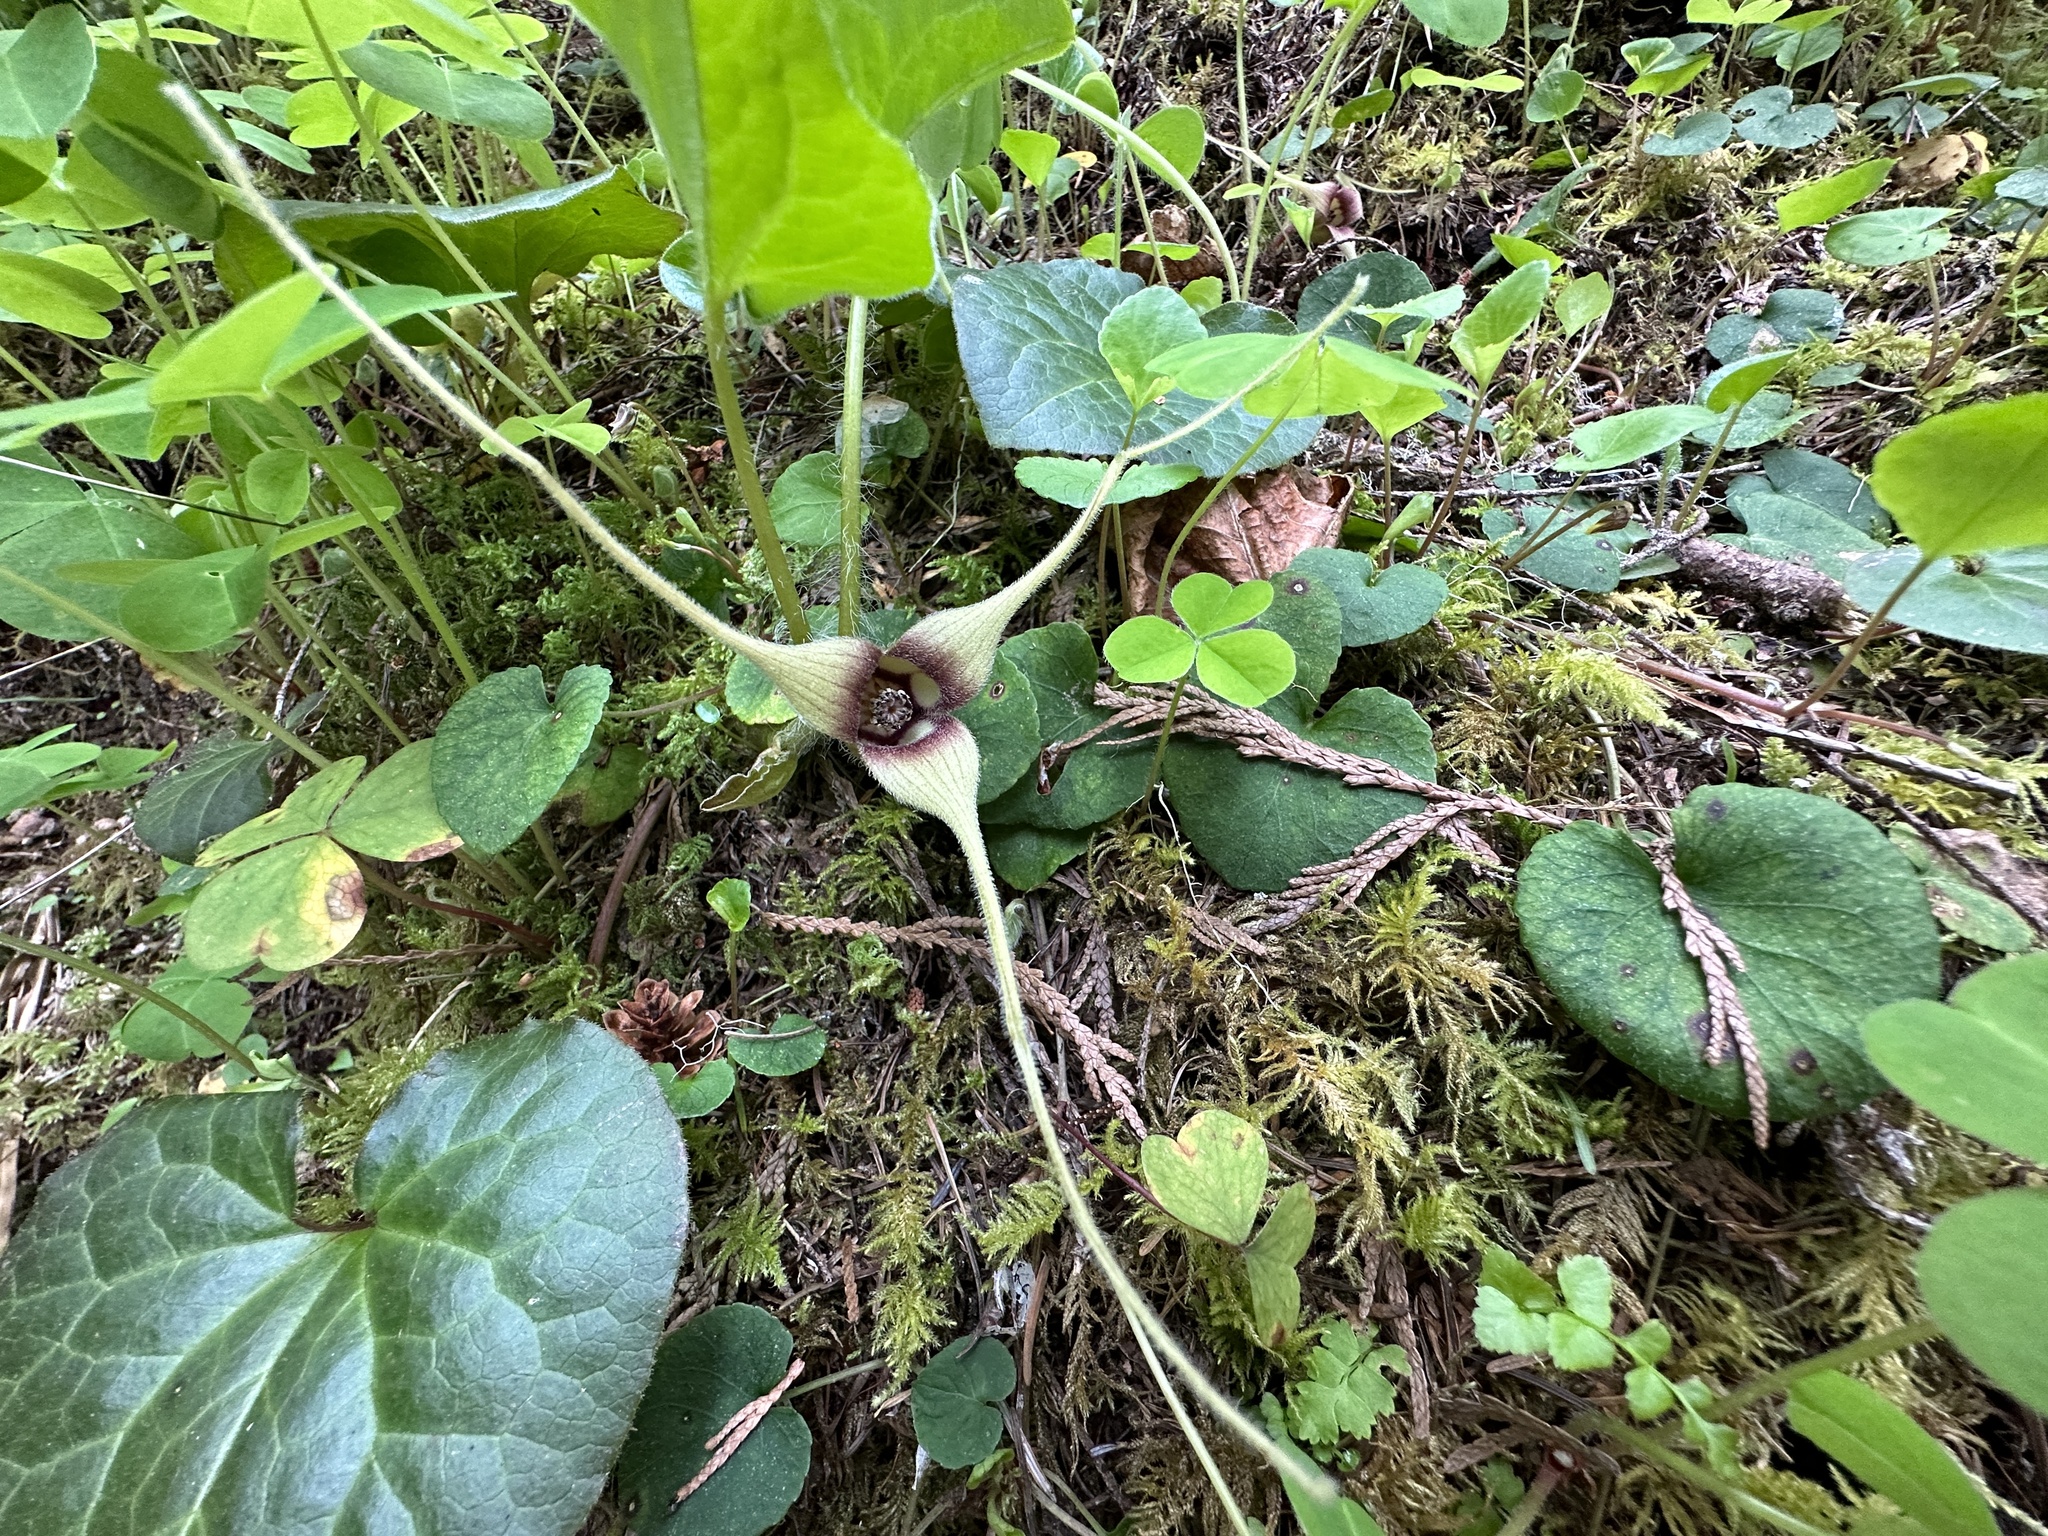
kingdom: Plantae
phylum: Tracheophyta
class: Magnoliopsida
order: Piperales
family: Aristolochiaceae
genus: Asarum
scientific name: Asarum caudatum
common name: Wild ginger
